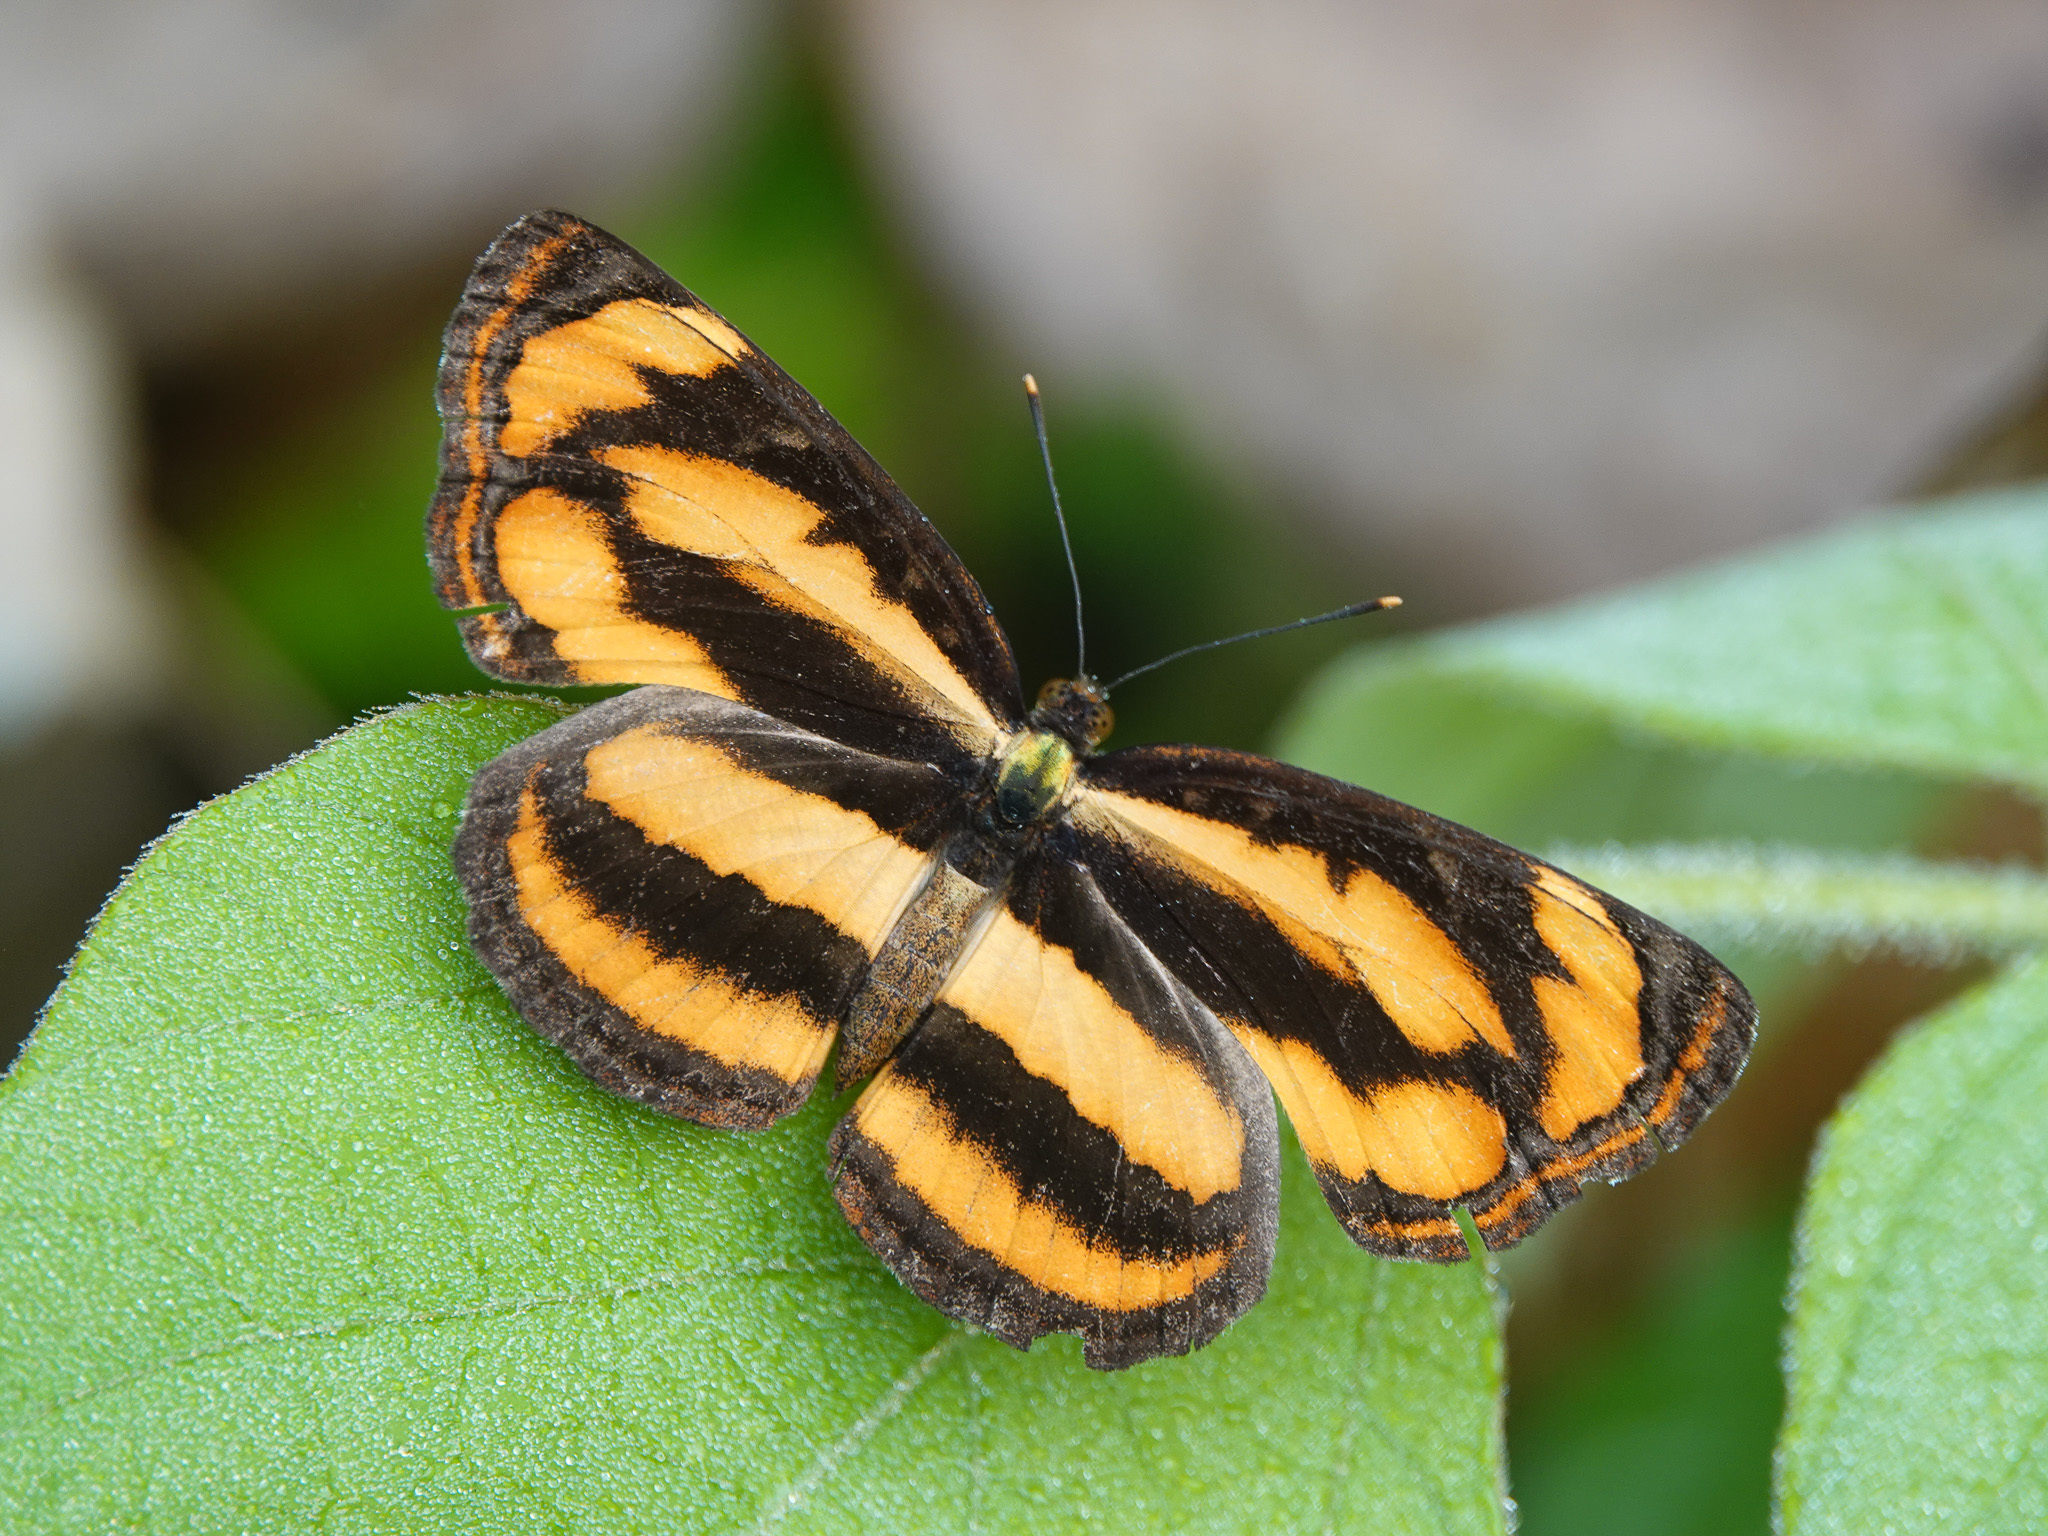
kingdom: Animalia
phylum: Arthropoda
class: Insecta
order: Lepidoptera
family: Nymphalidae
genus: Pantoporia
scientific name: Pantoporia hordonia
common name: Common lascar
